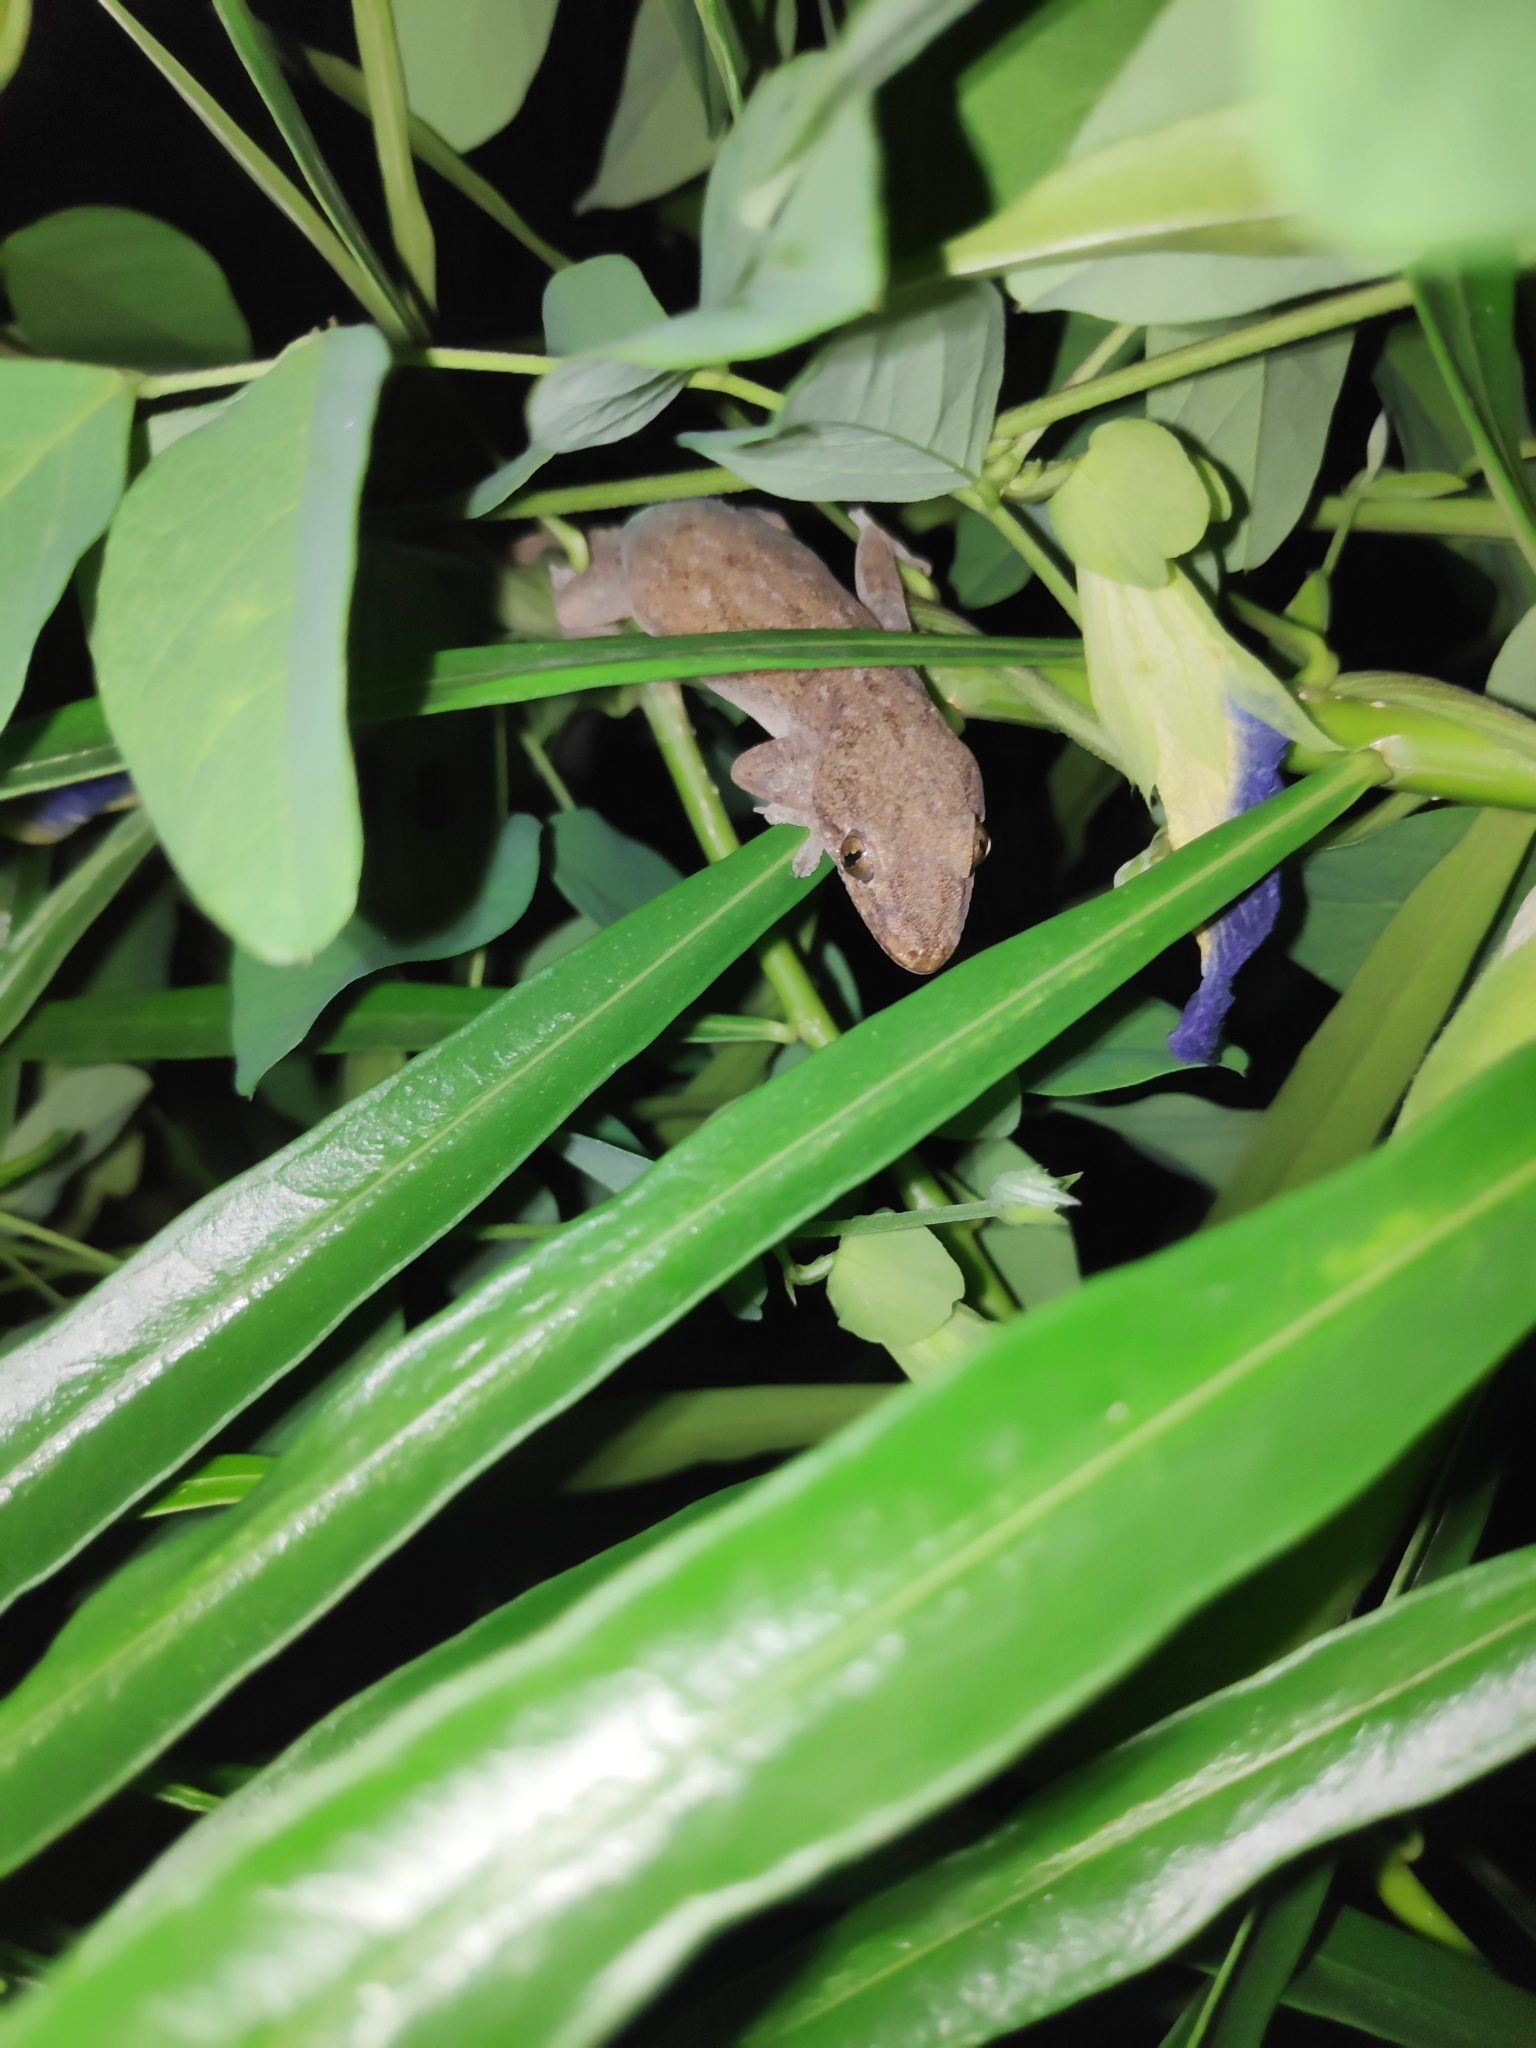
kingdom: Animalia
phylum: Chordata
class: Squamata
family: Gekkonidae
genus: Hemidactylus
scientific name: Hemidactylus frenatus
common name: Common house gecko
